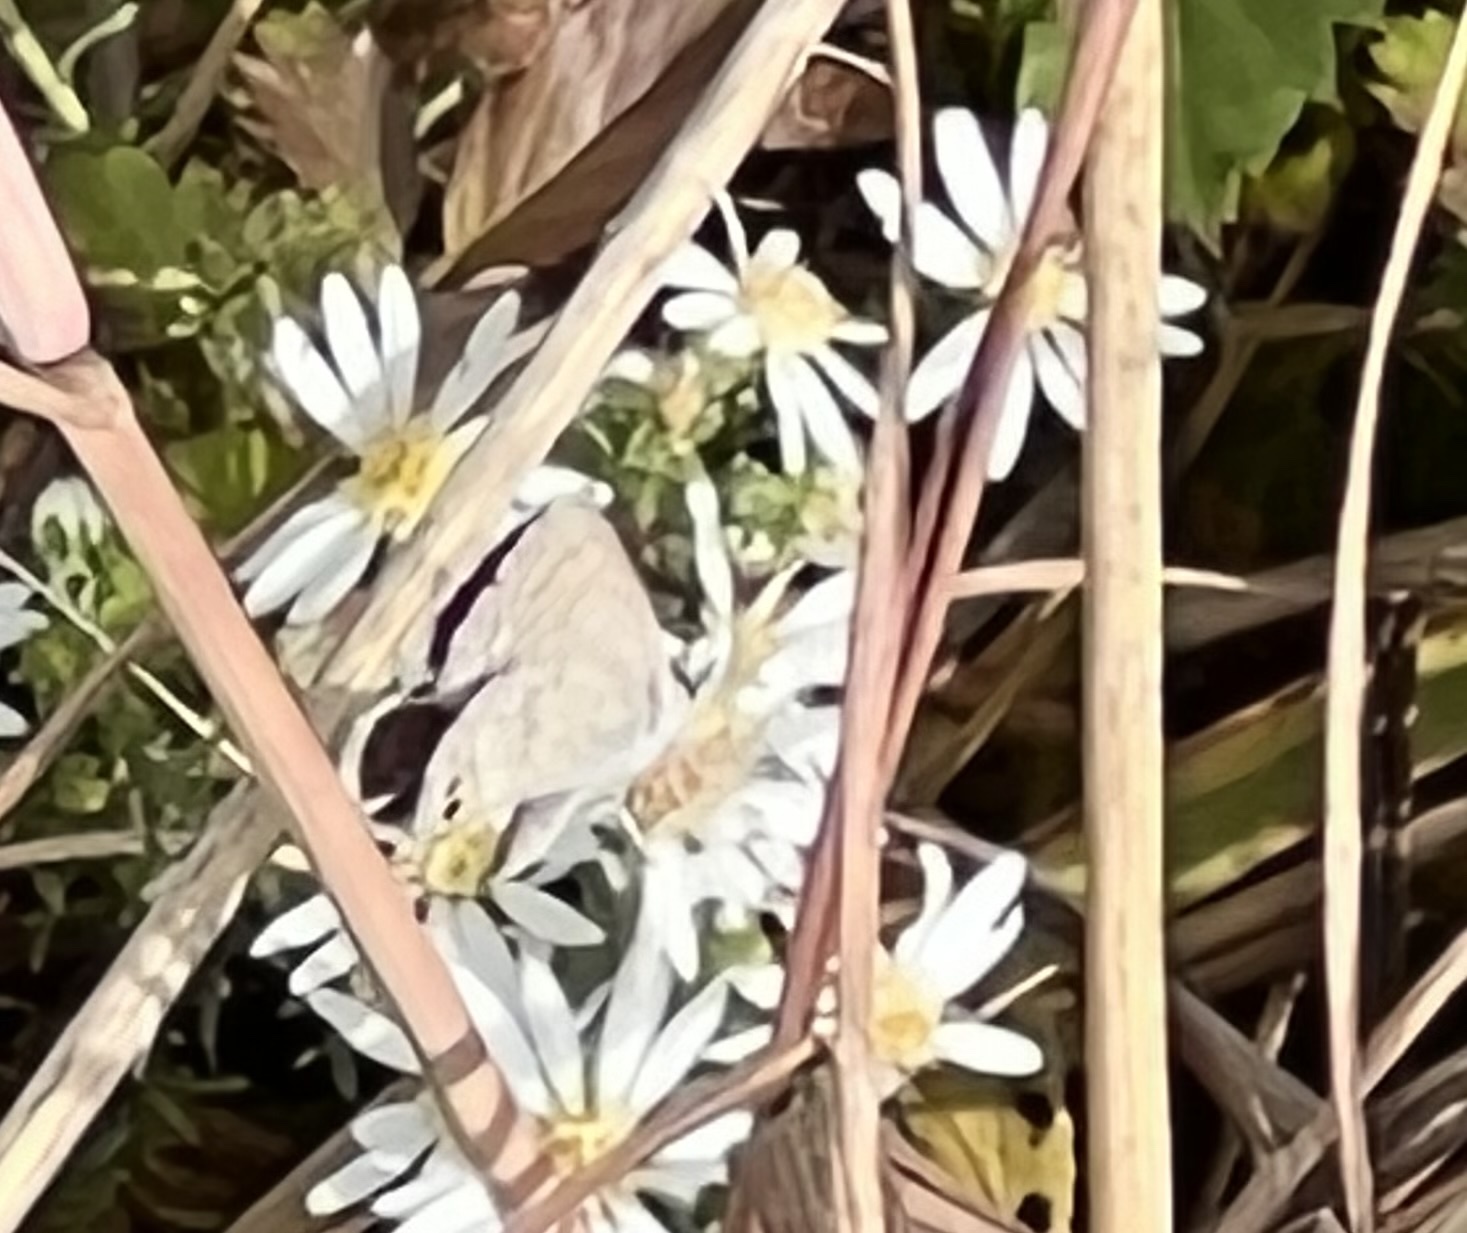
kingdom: Animalia
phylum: Arthropoda
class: Insecta
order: Lepidoptera
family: Lycaenidae
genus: Hemiargus
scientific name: Hemiargus ceraunus
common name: Ceraunus blue
